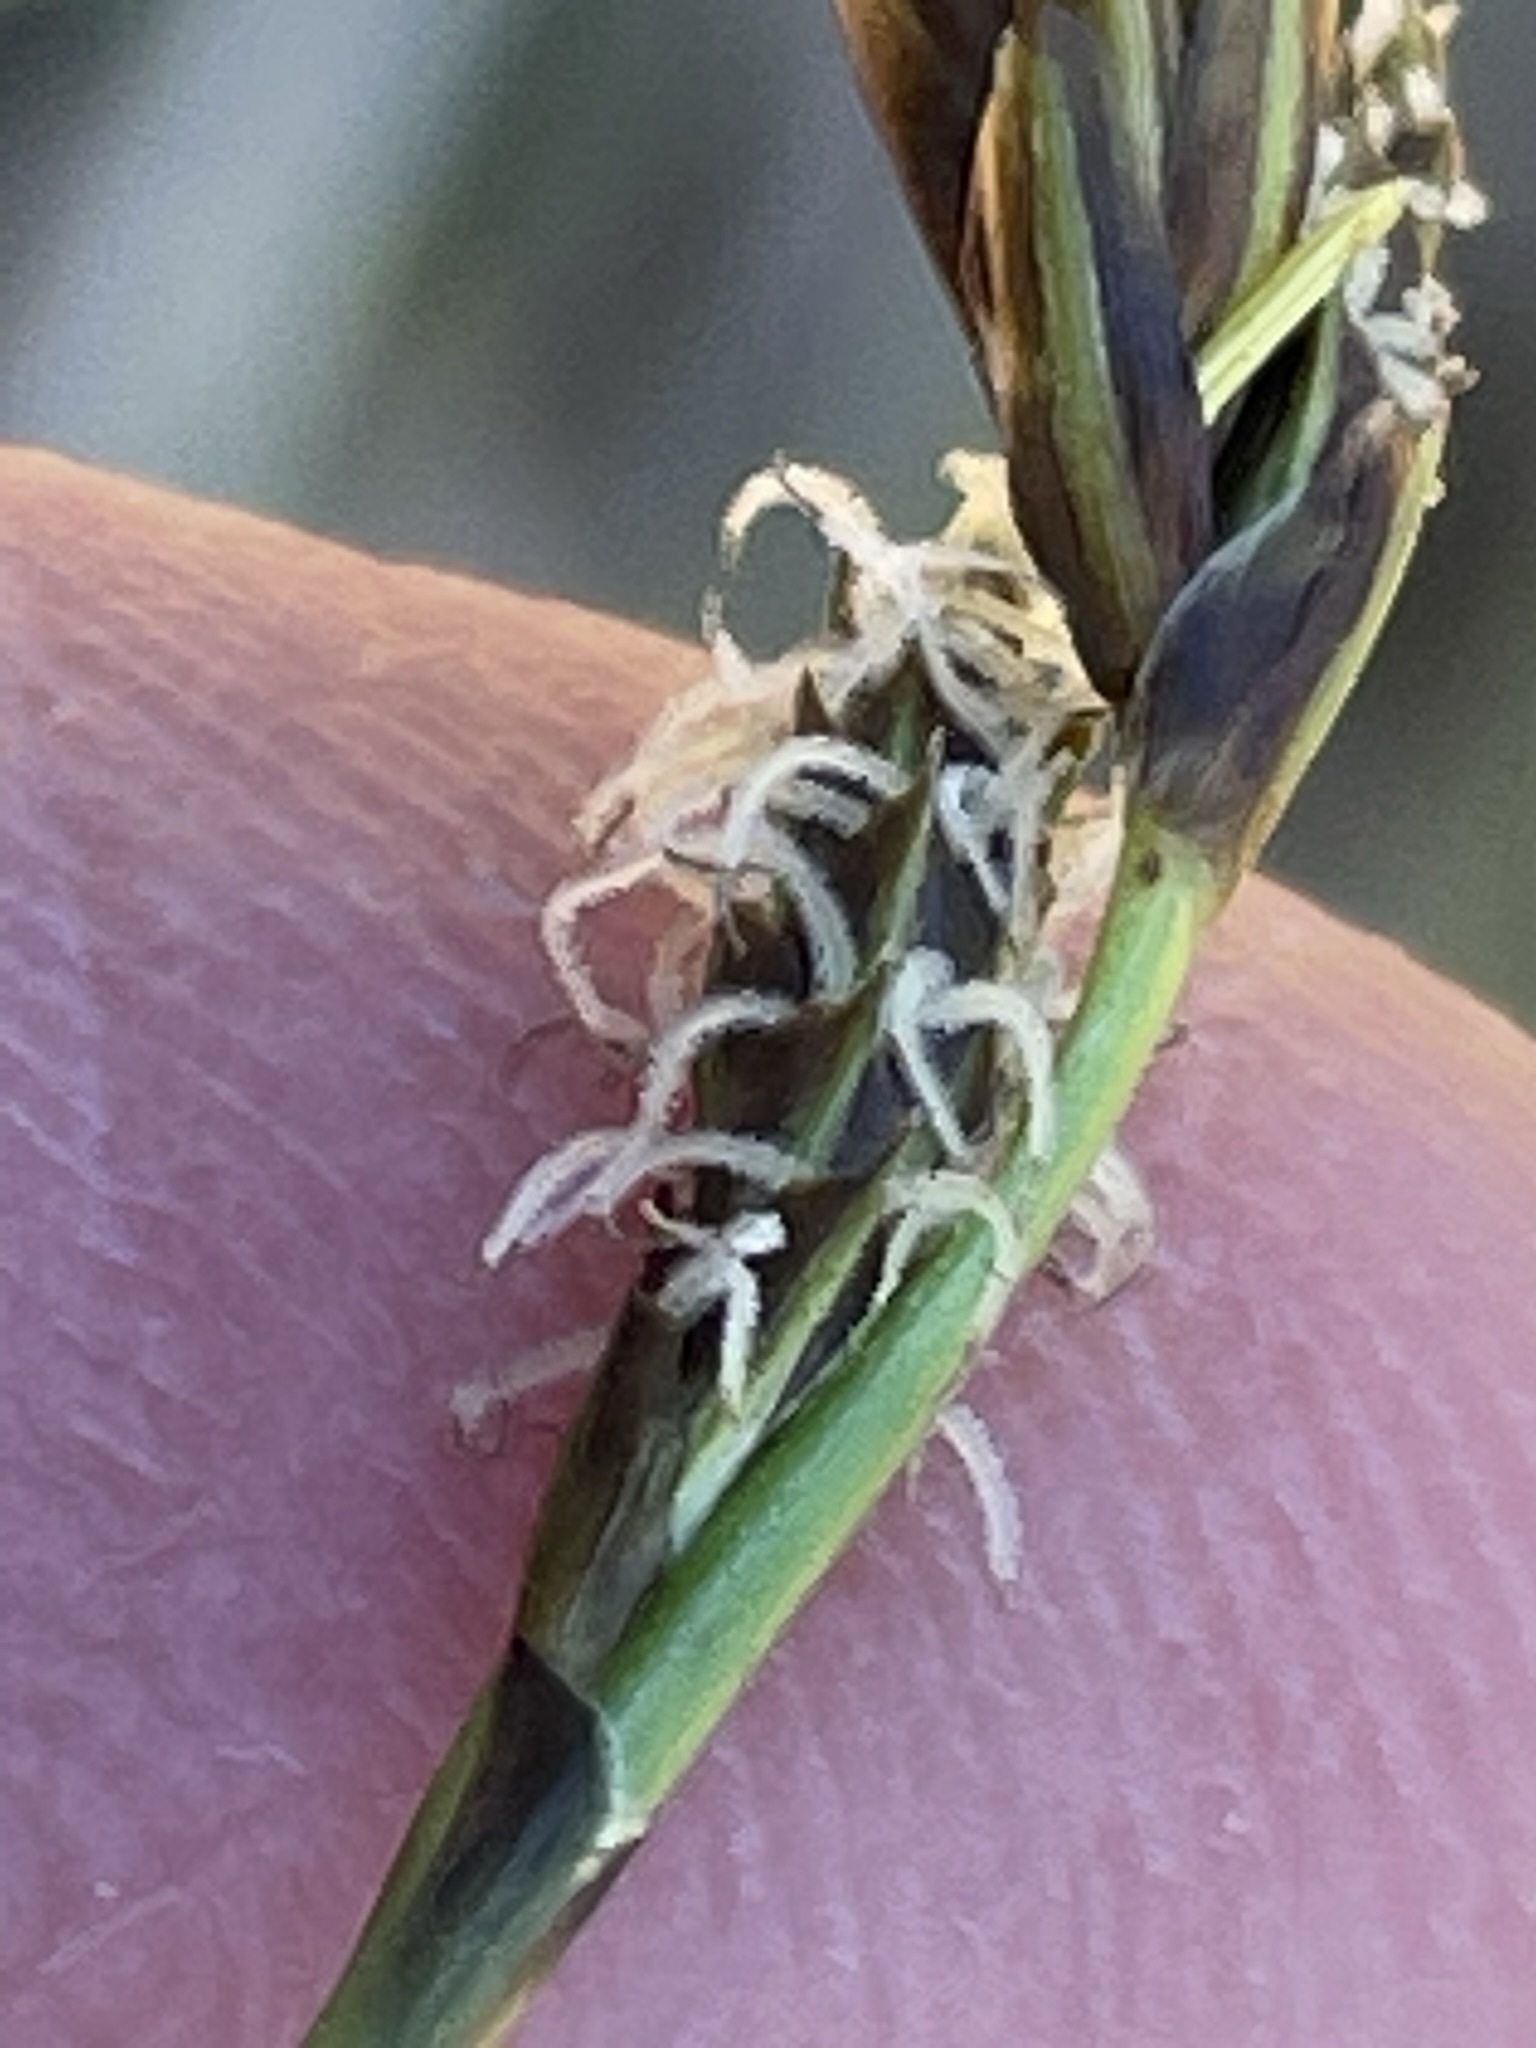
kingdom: Plantae
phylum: Tracheophyta
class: Liliopsida
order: Poales
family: Cyperaceae
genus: Carex
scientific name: Carex caryophyllea
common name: Spring sedge
